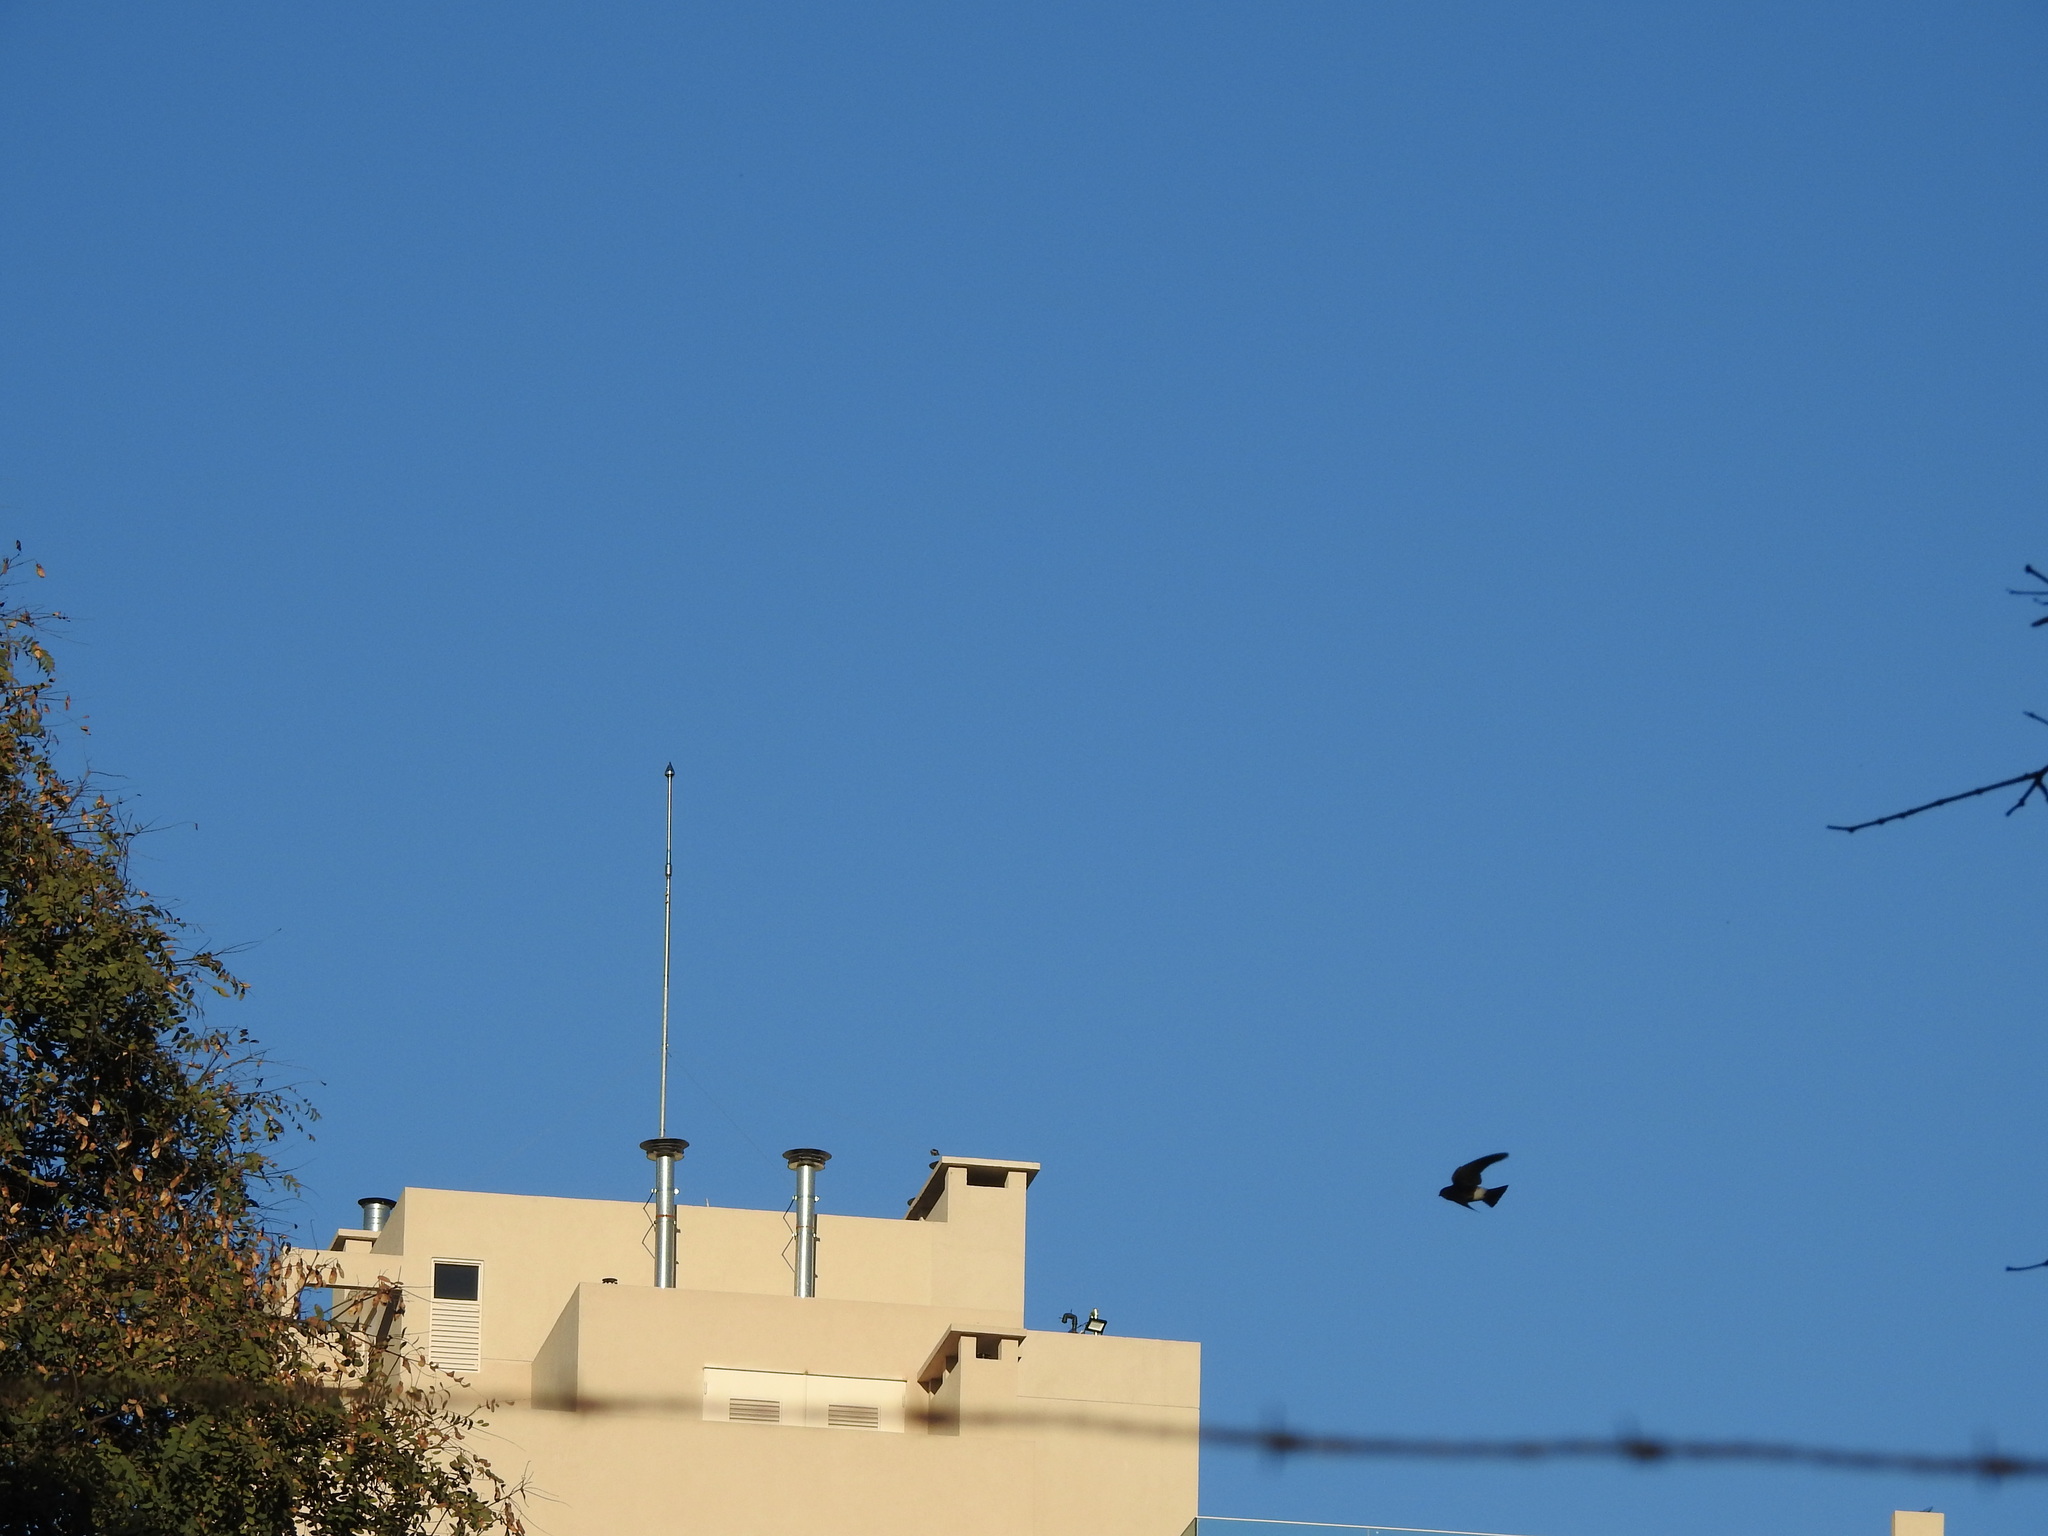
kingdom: Animalia
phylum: Chordata
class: Aves
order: Passeriformes
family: Hirundinidae
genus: Tachycineta
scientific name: Tachycineta leucorrhoa
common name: White-rumped swallow
